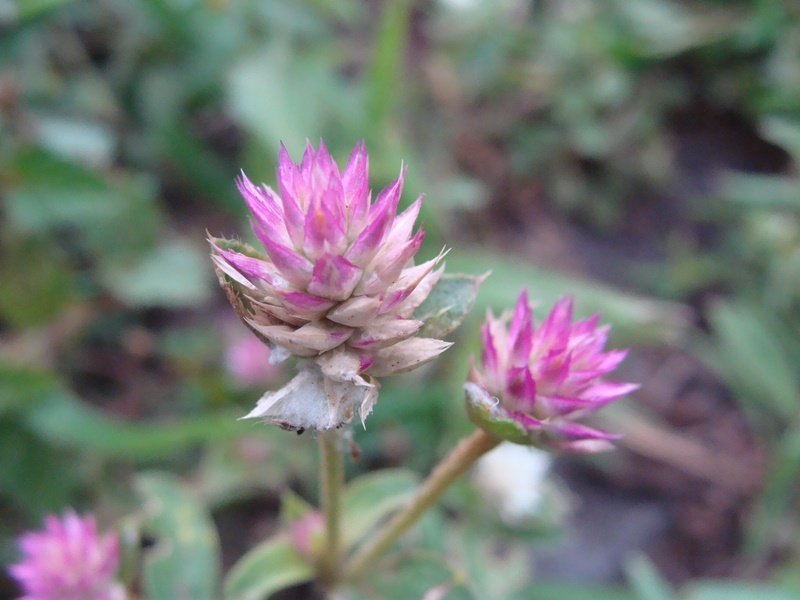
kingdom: Plantae
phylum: Tracheophyta
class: Magnoliopsida
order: Caryophyllales
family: Amaranthaceae
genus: Gomphrena
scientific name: Gomphrena serrata
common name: Arrasa con todo
